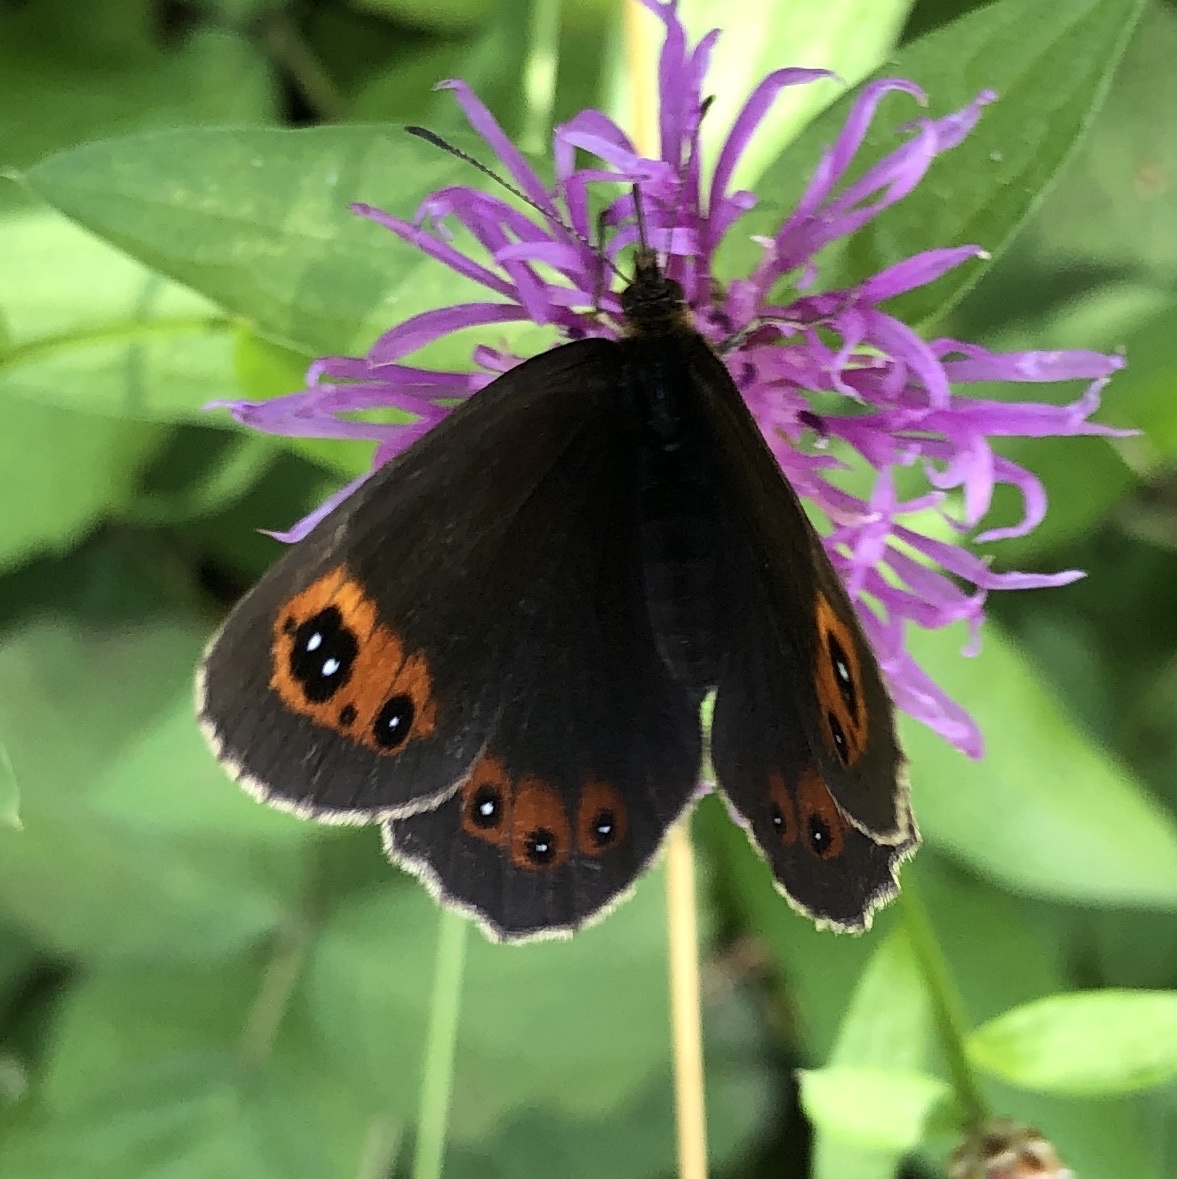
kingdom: Animalia
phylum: Arthropoda
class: Insecta
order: Lepidoptera
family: Nymphalidae
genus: Erebia
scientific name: Erebia aethiops
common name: Scotch argus
